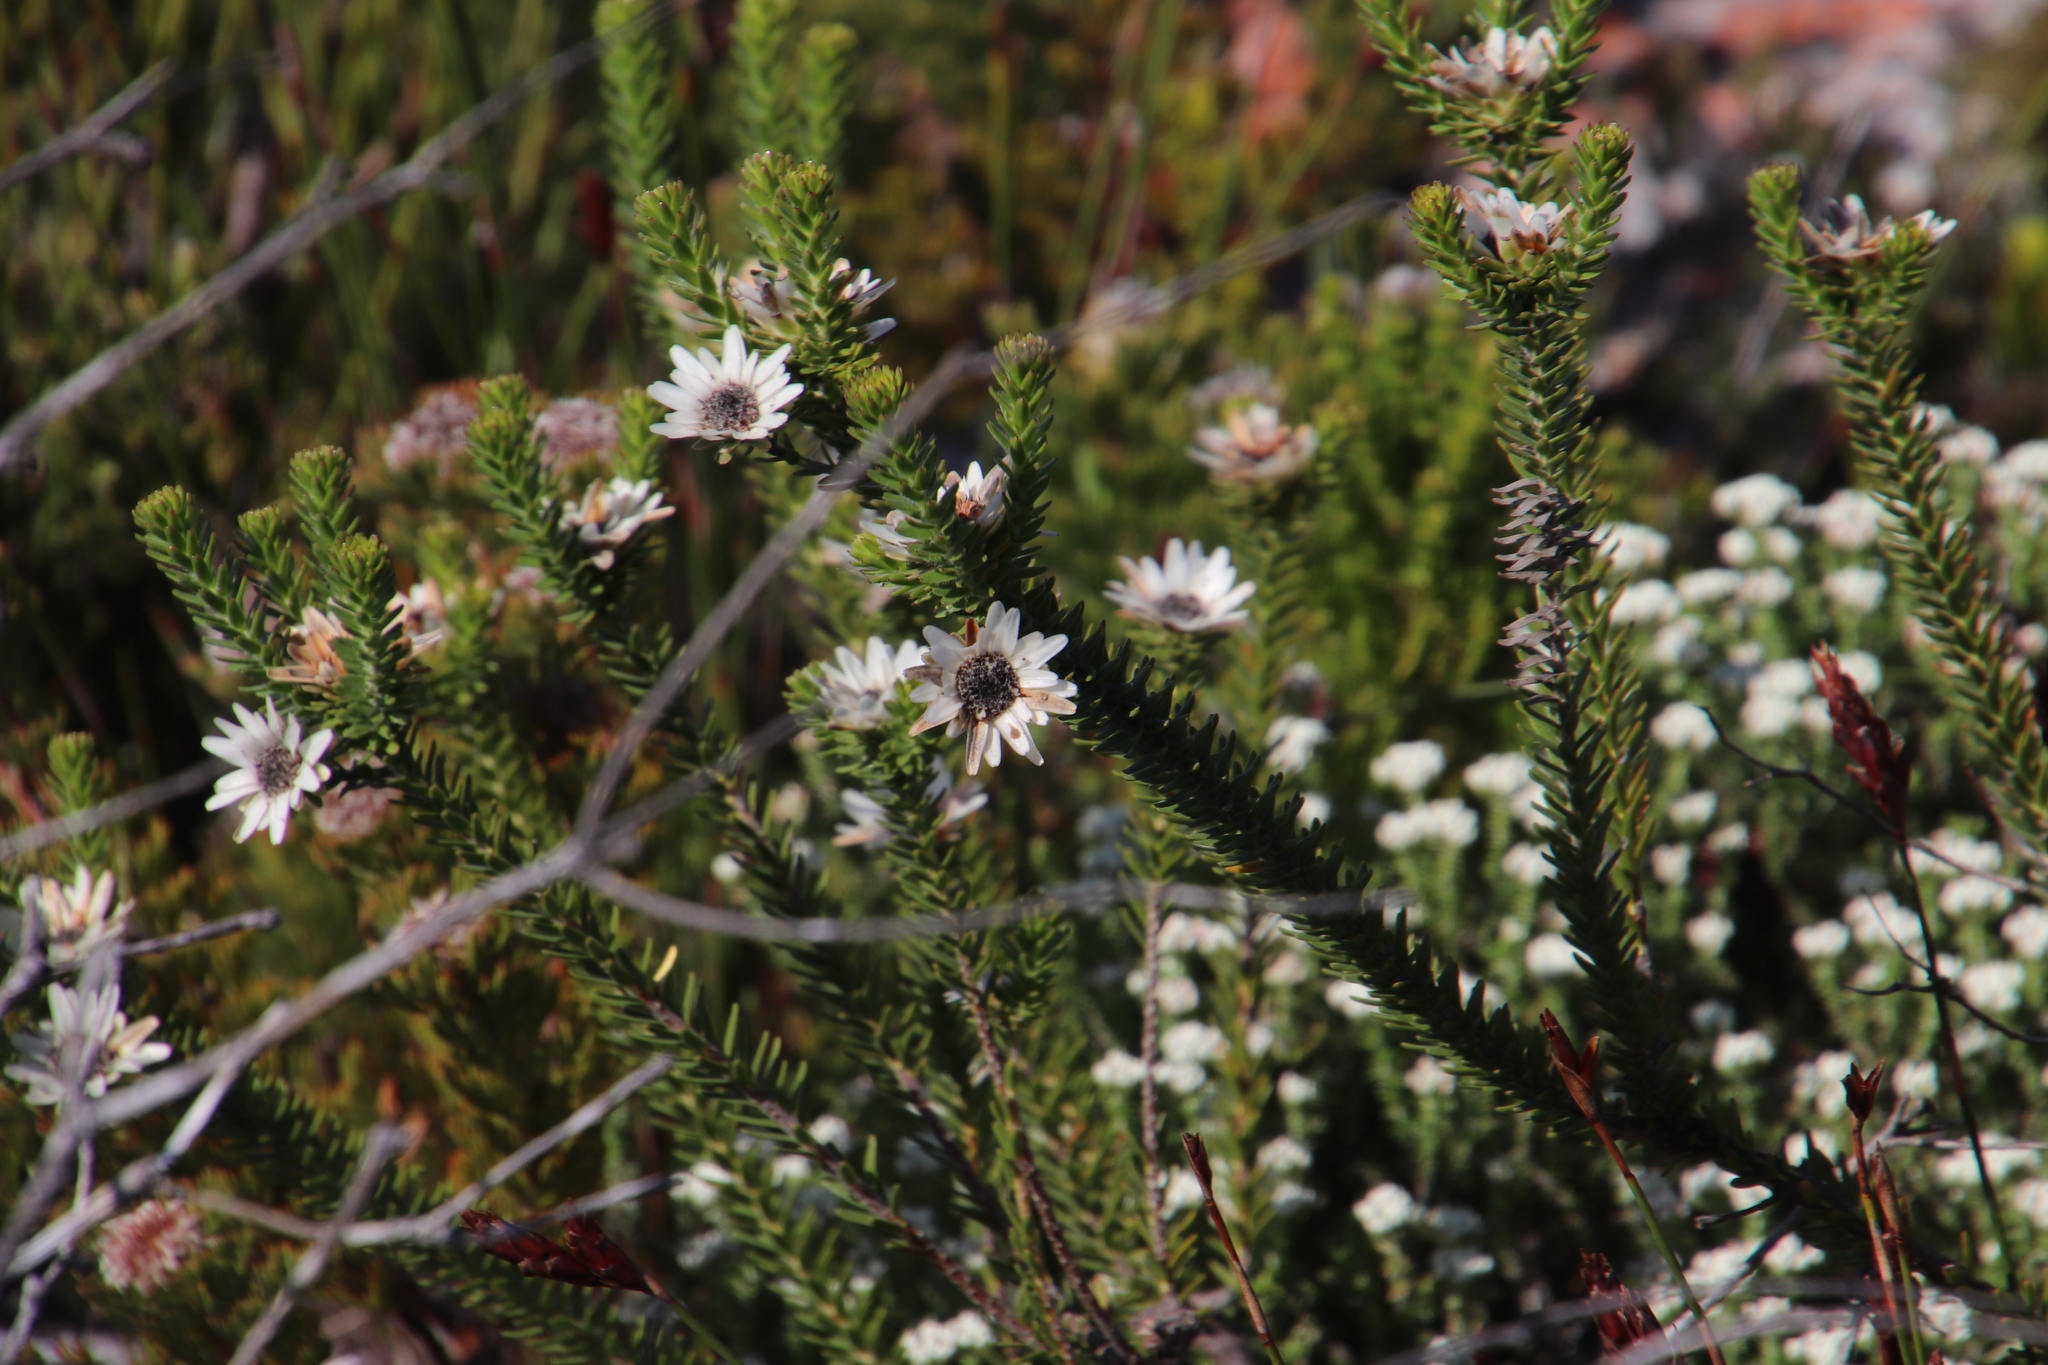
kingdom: Plantae
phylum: Tracheophyta
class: Magnoliopsida
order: Bruniales
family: Bruniaceae
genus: Staavia
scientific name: Staavia dodii
